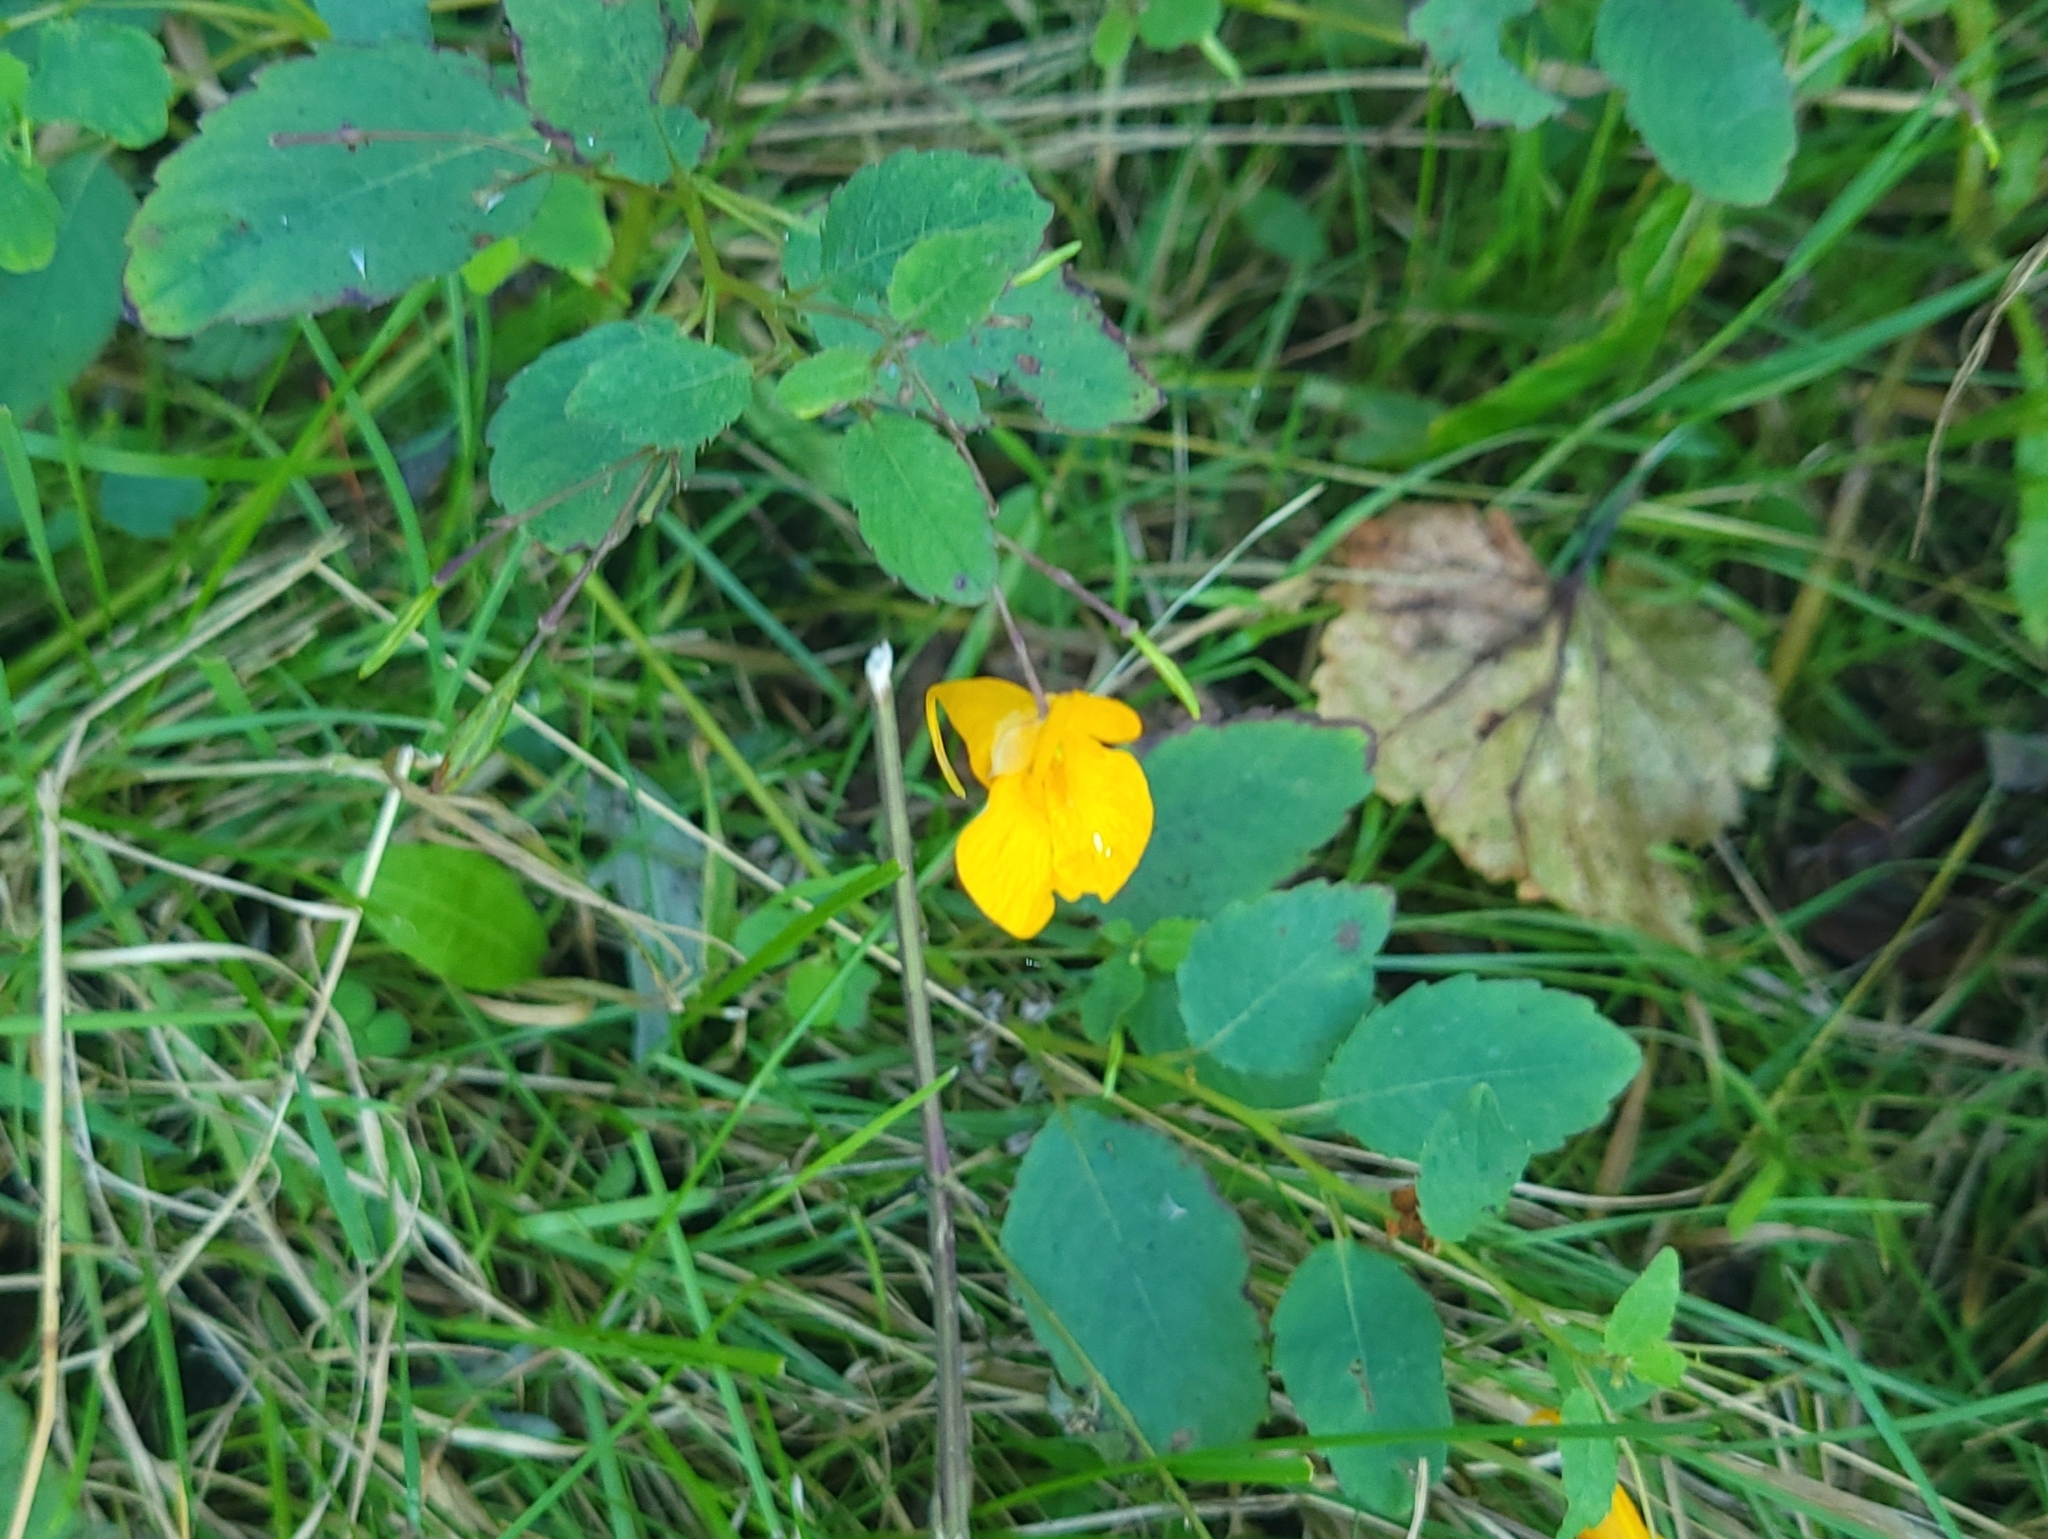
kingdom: Plantae
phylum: Tracheophyta
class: Magnoliopsida
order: Ericales
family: Balsaminaceae
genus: Impatiens
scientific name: Impatiens capensis
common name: Orange balsam
